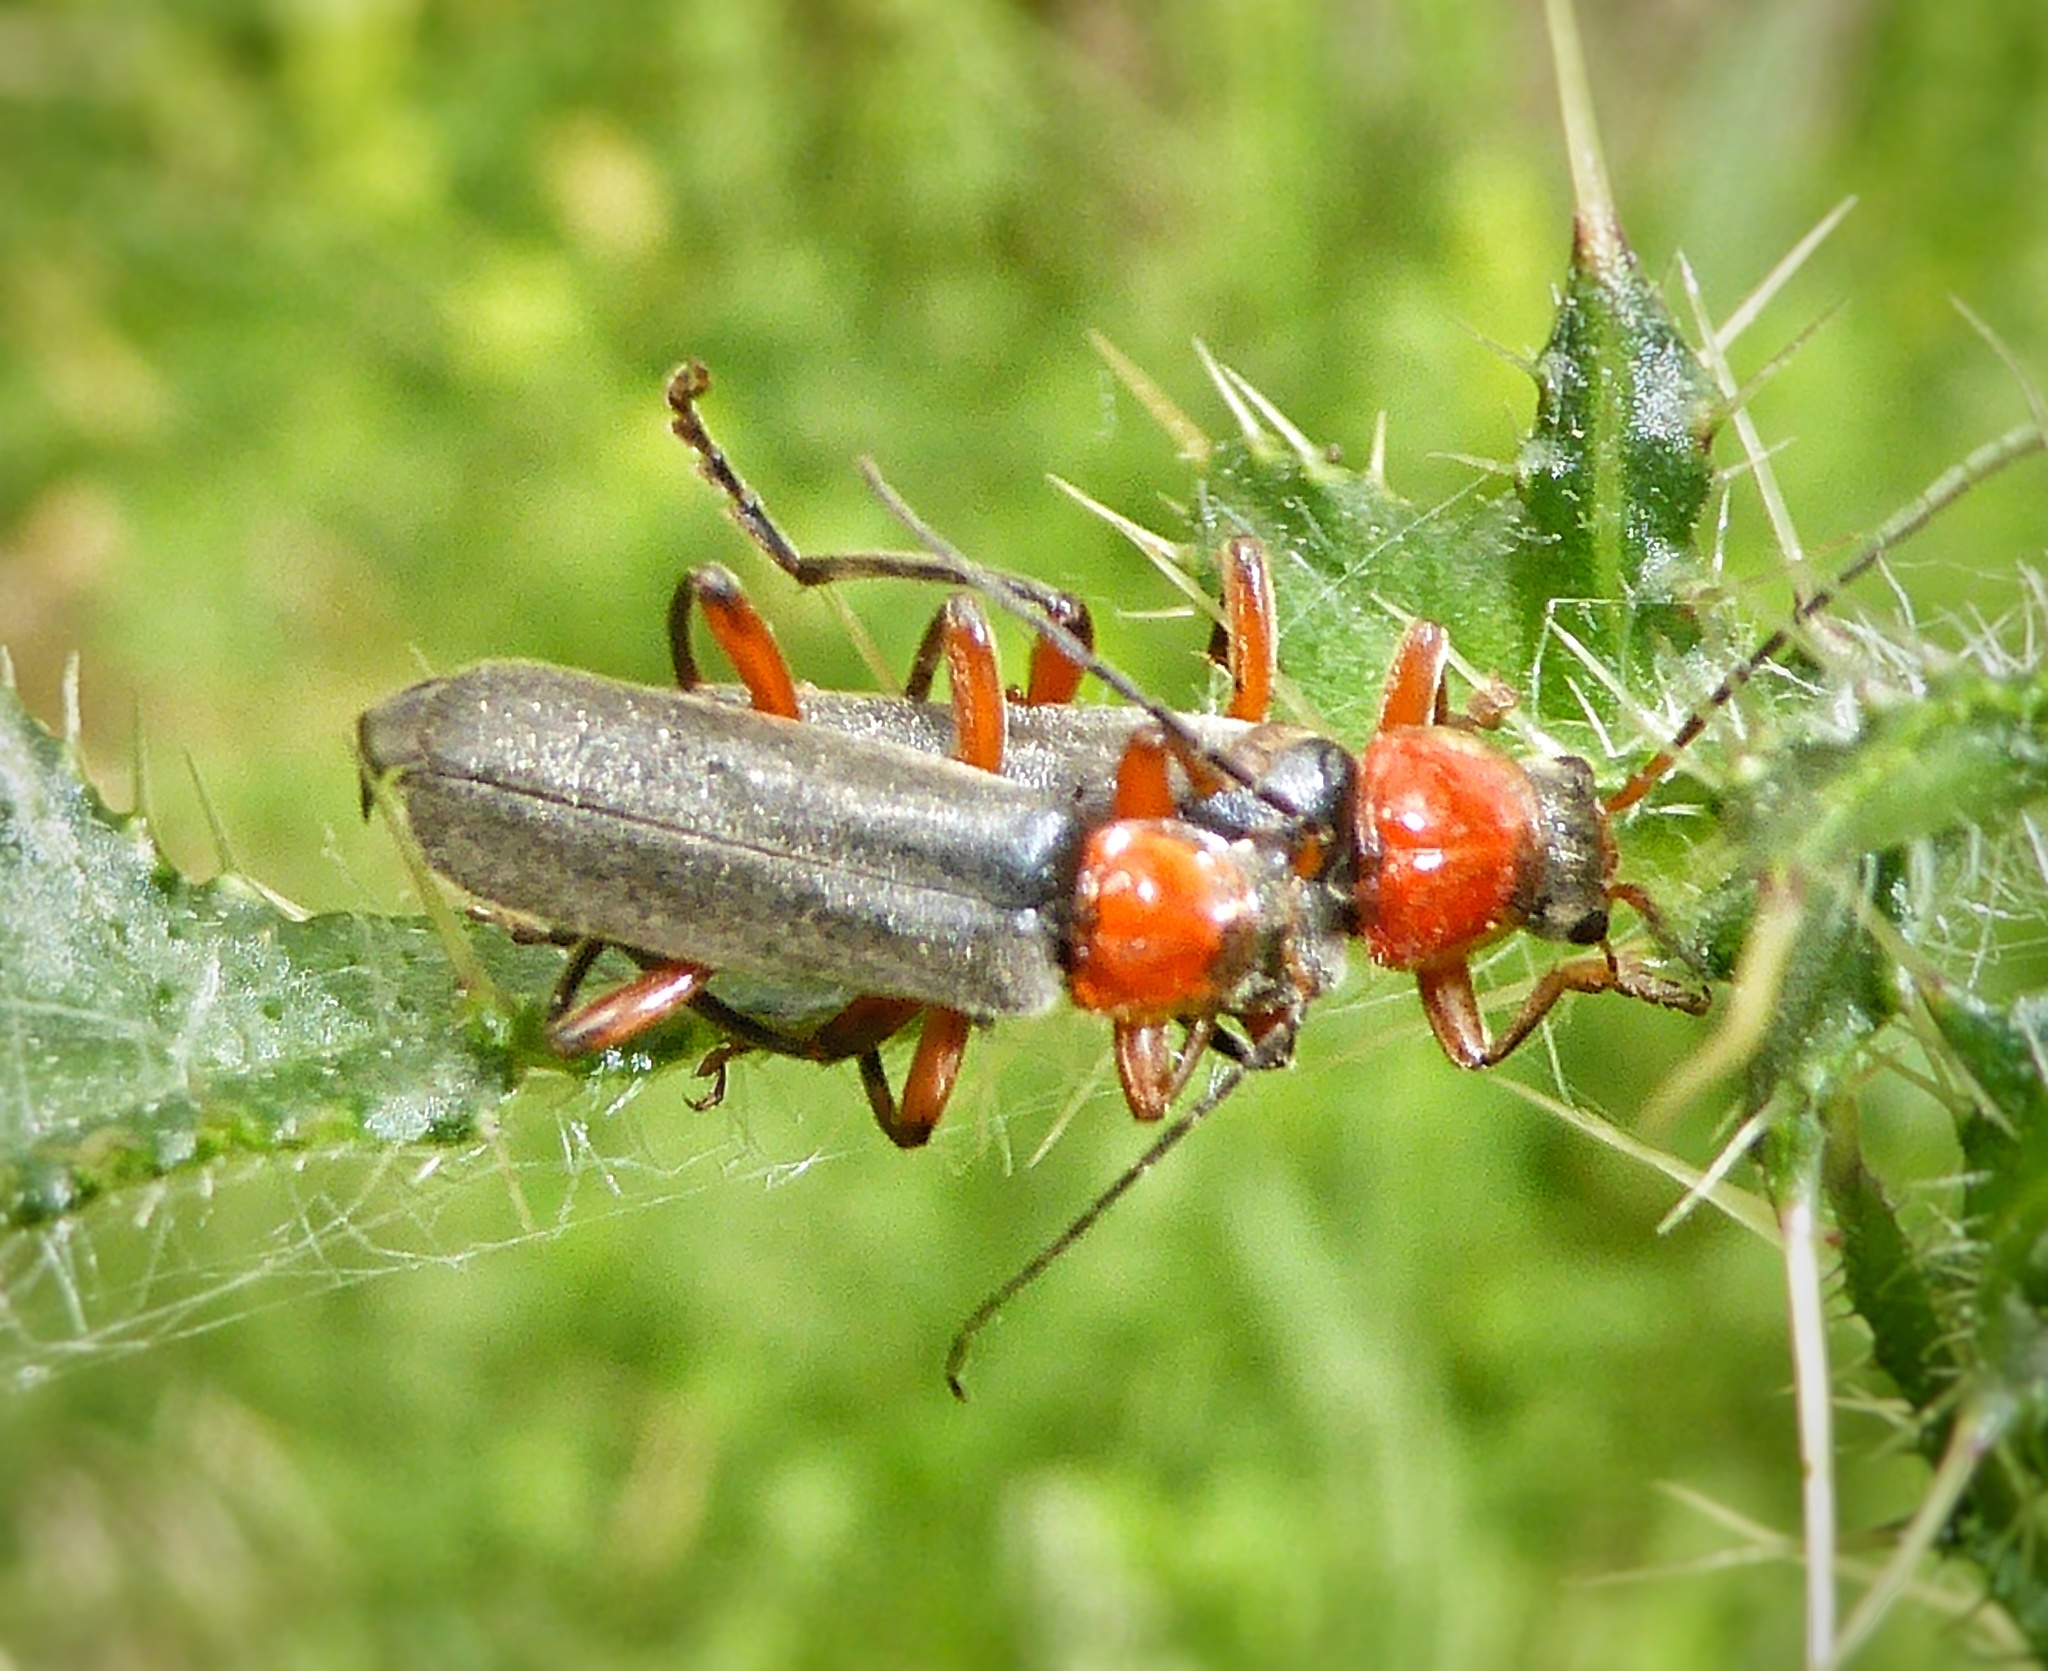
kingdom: Animalia
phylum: Arthropoda
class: Insecta
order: Coleoptera
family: Cantharidae
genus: Cantharis
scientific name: Cantharis pellucida
